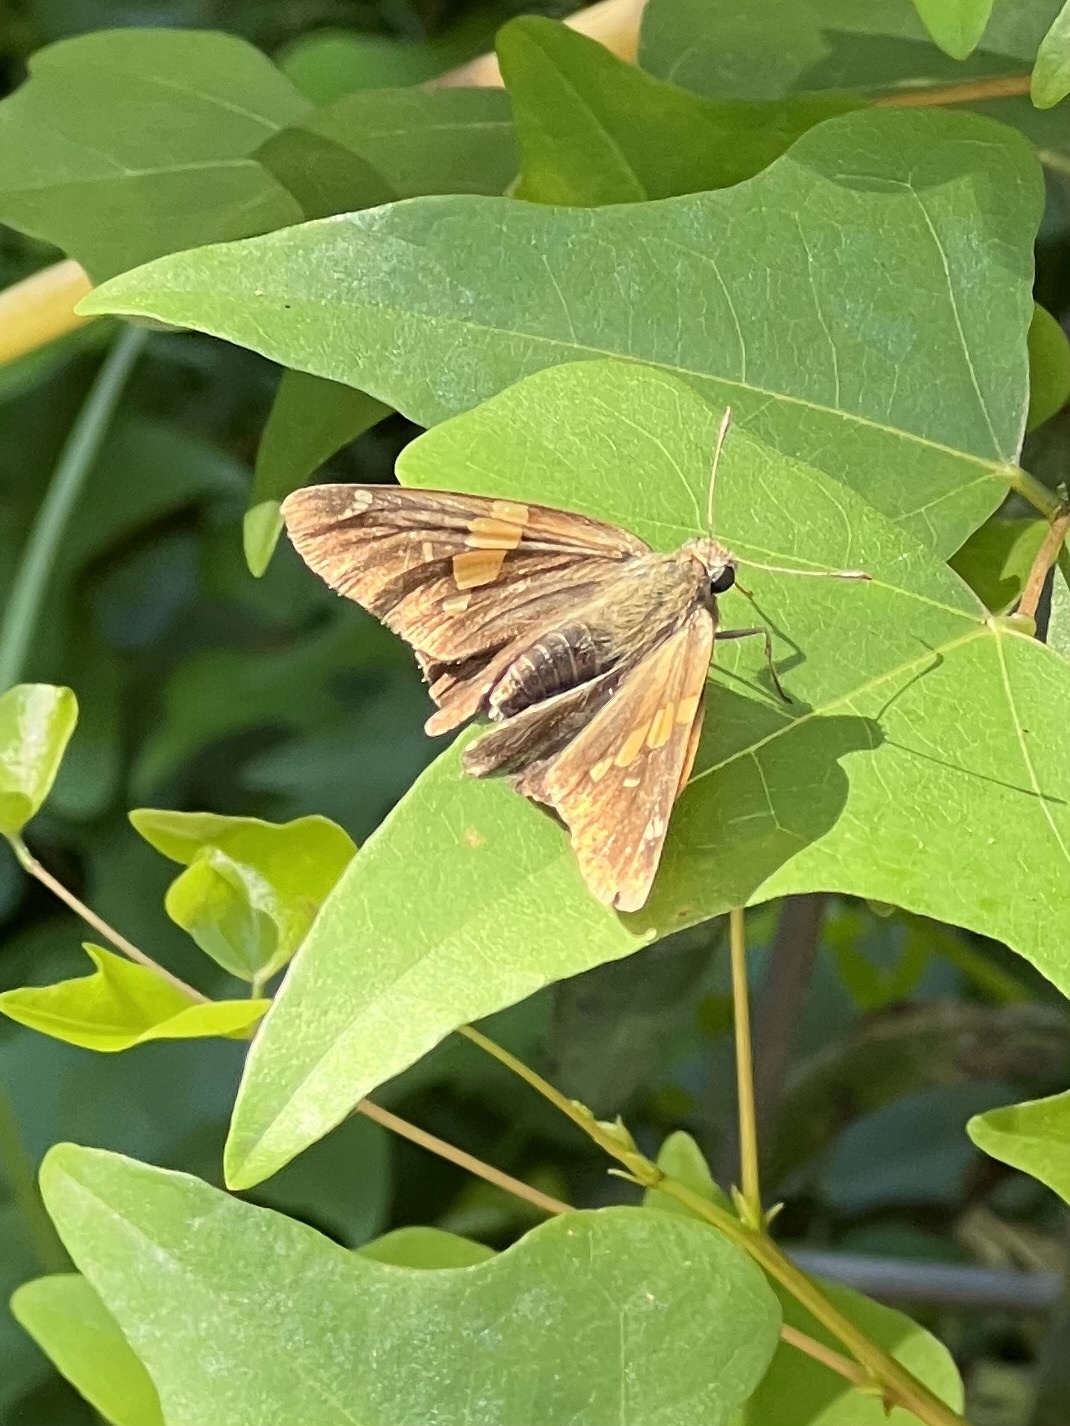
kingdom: Animalia
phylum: Arthropoda
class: Insecta
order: Lepidoptera
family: Hesperiidae
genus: Epargyreus
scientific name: Epargyreus clarus
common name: Silver-spotted skipper
